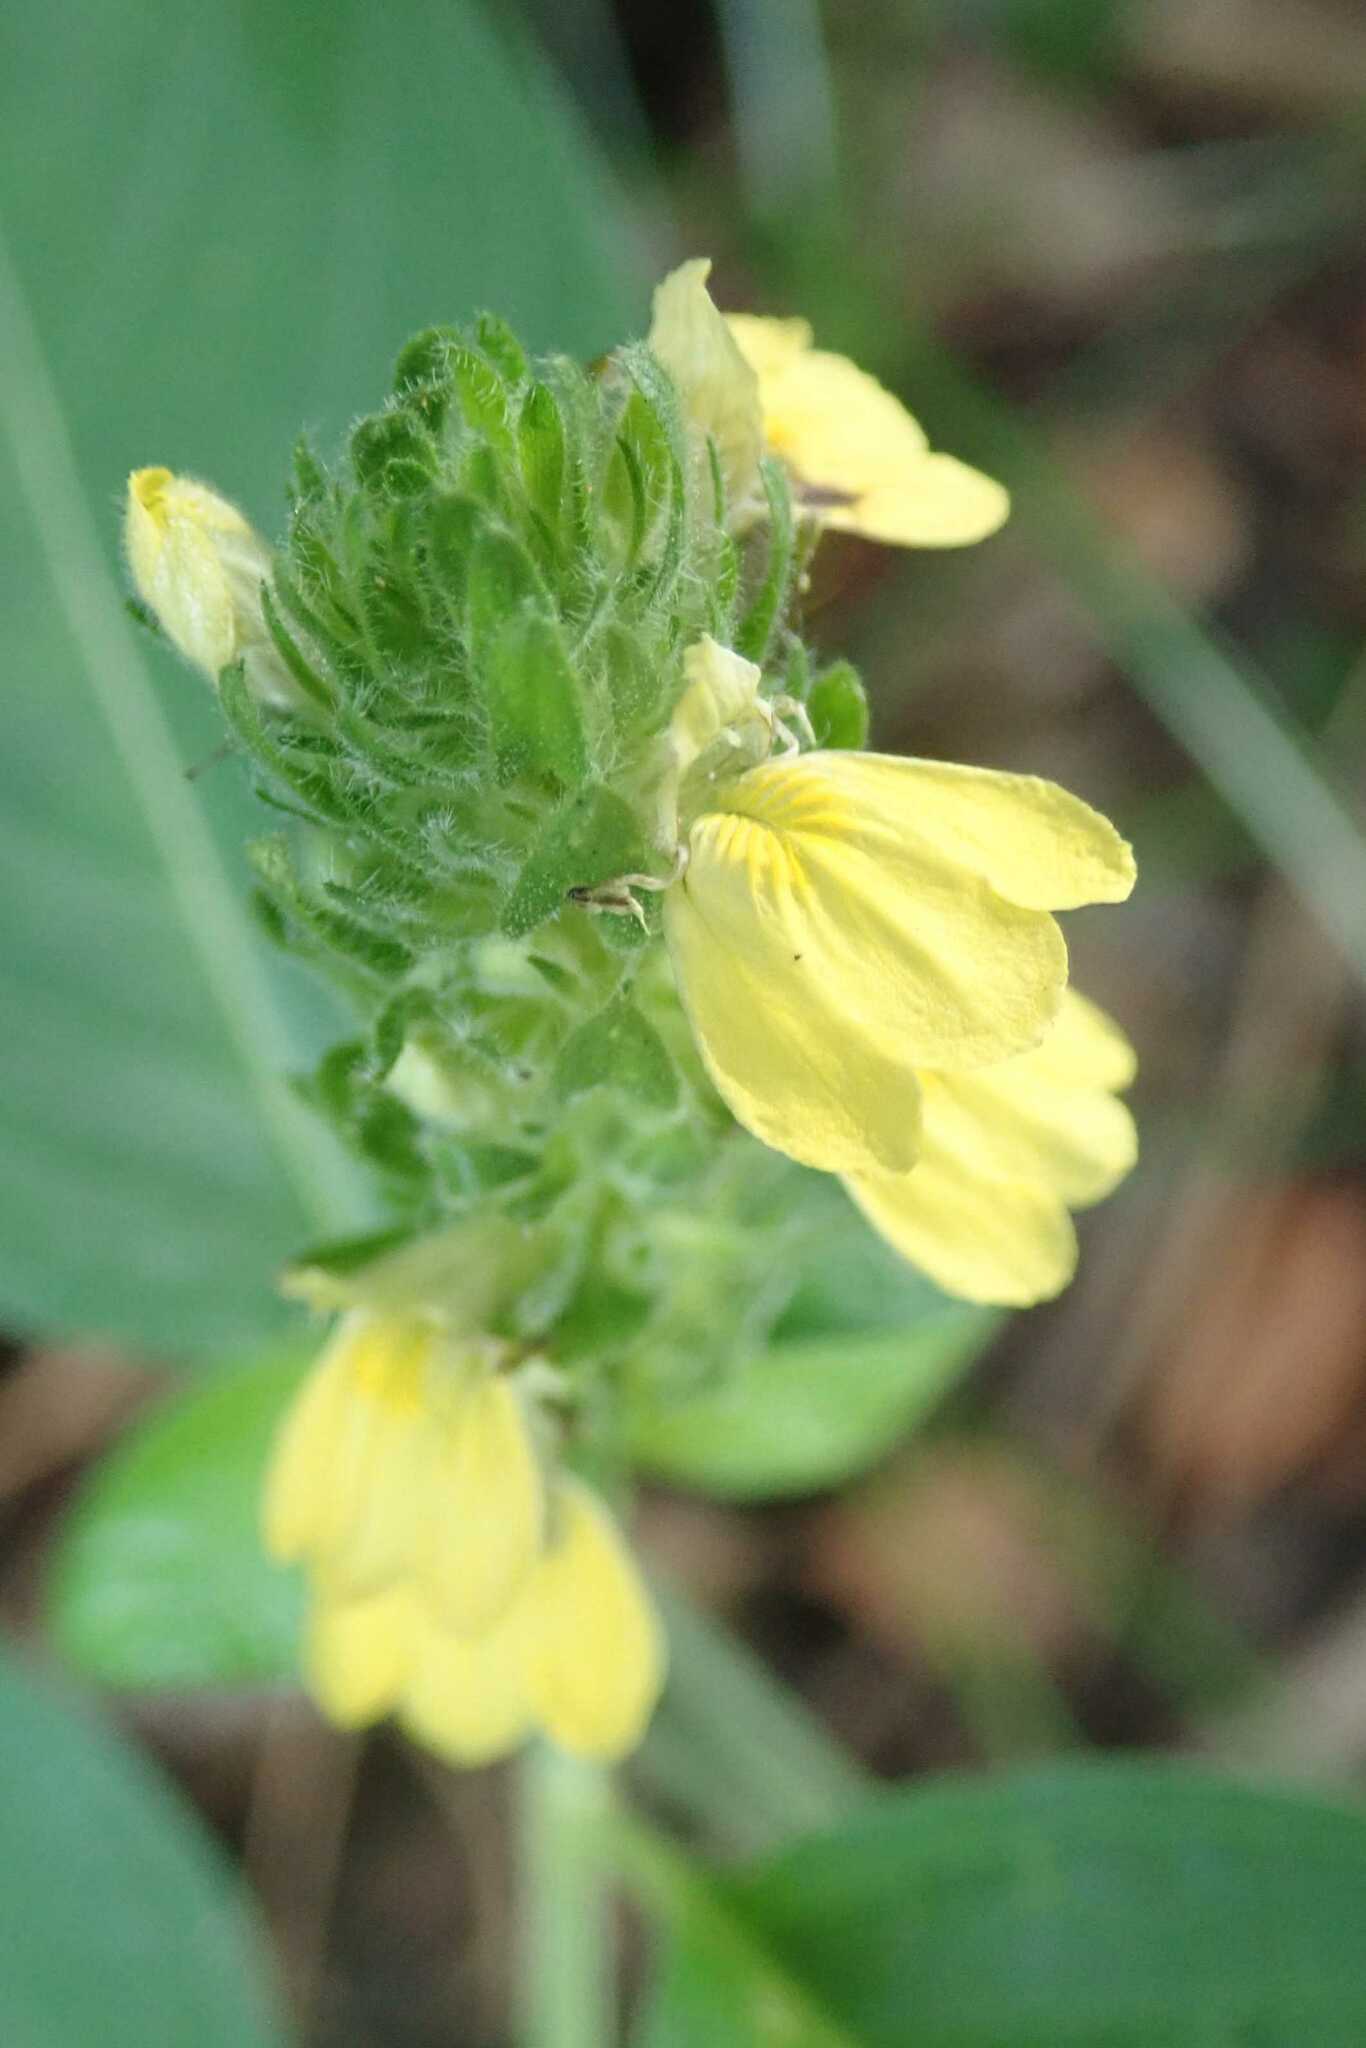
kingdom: Plantae
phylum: Tracheophyta
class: Magnoliopsida
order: Lamiales
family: Acanthaceae
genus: Justicia
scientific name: Justicia flava
